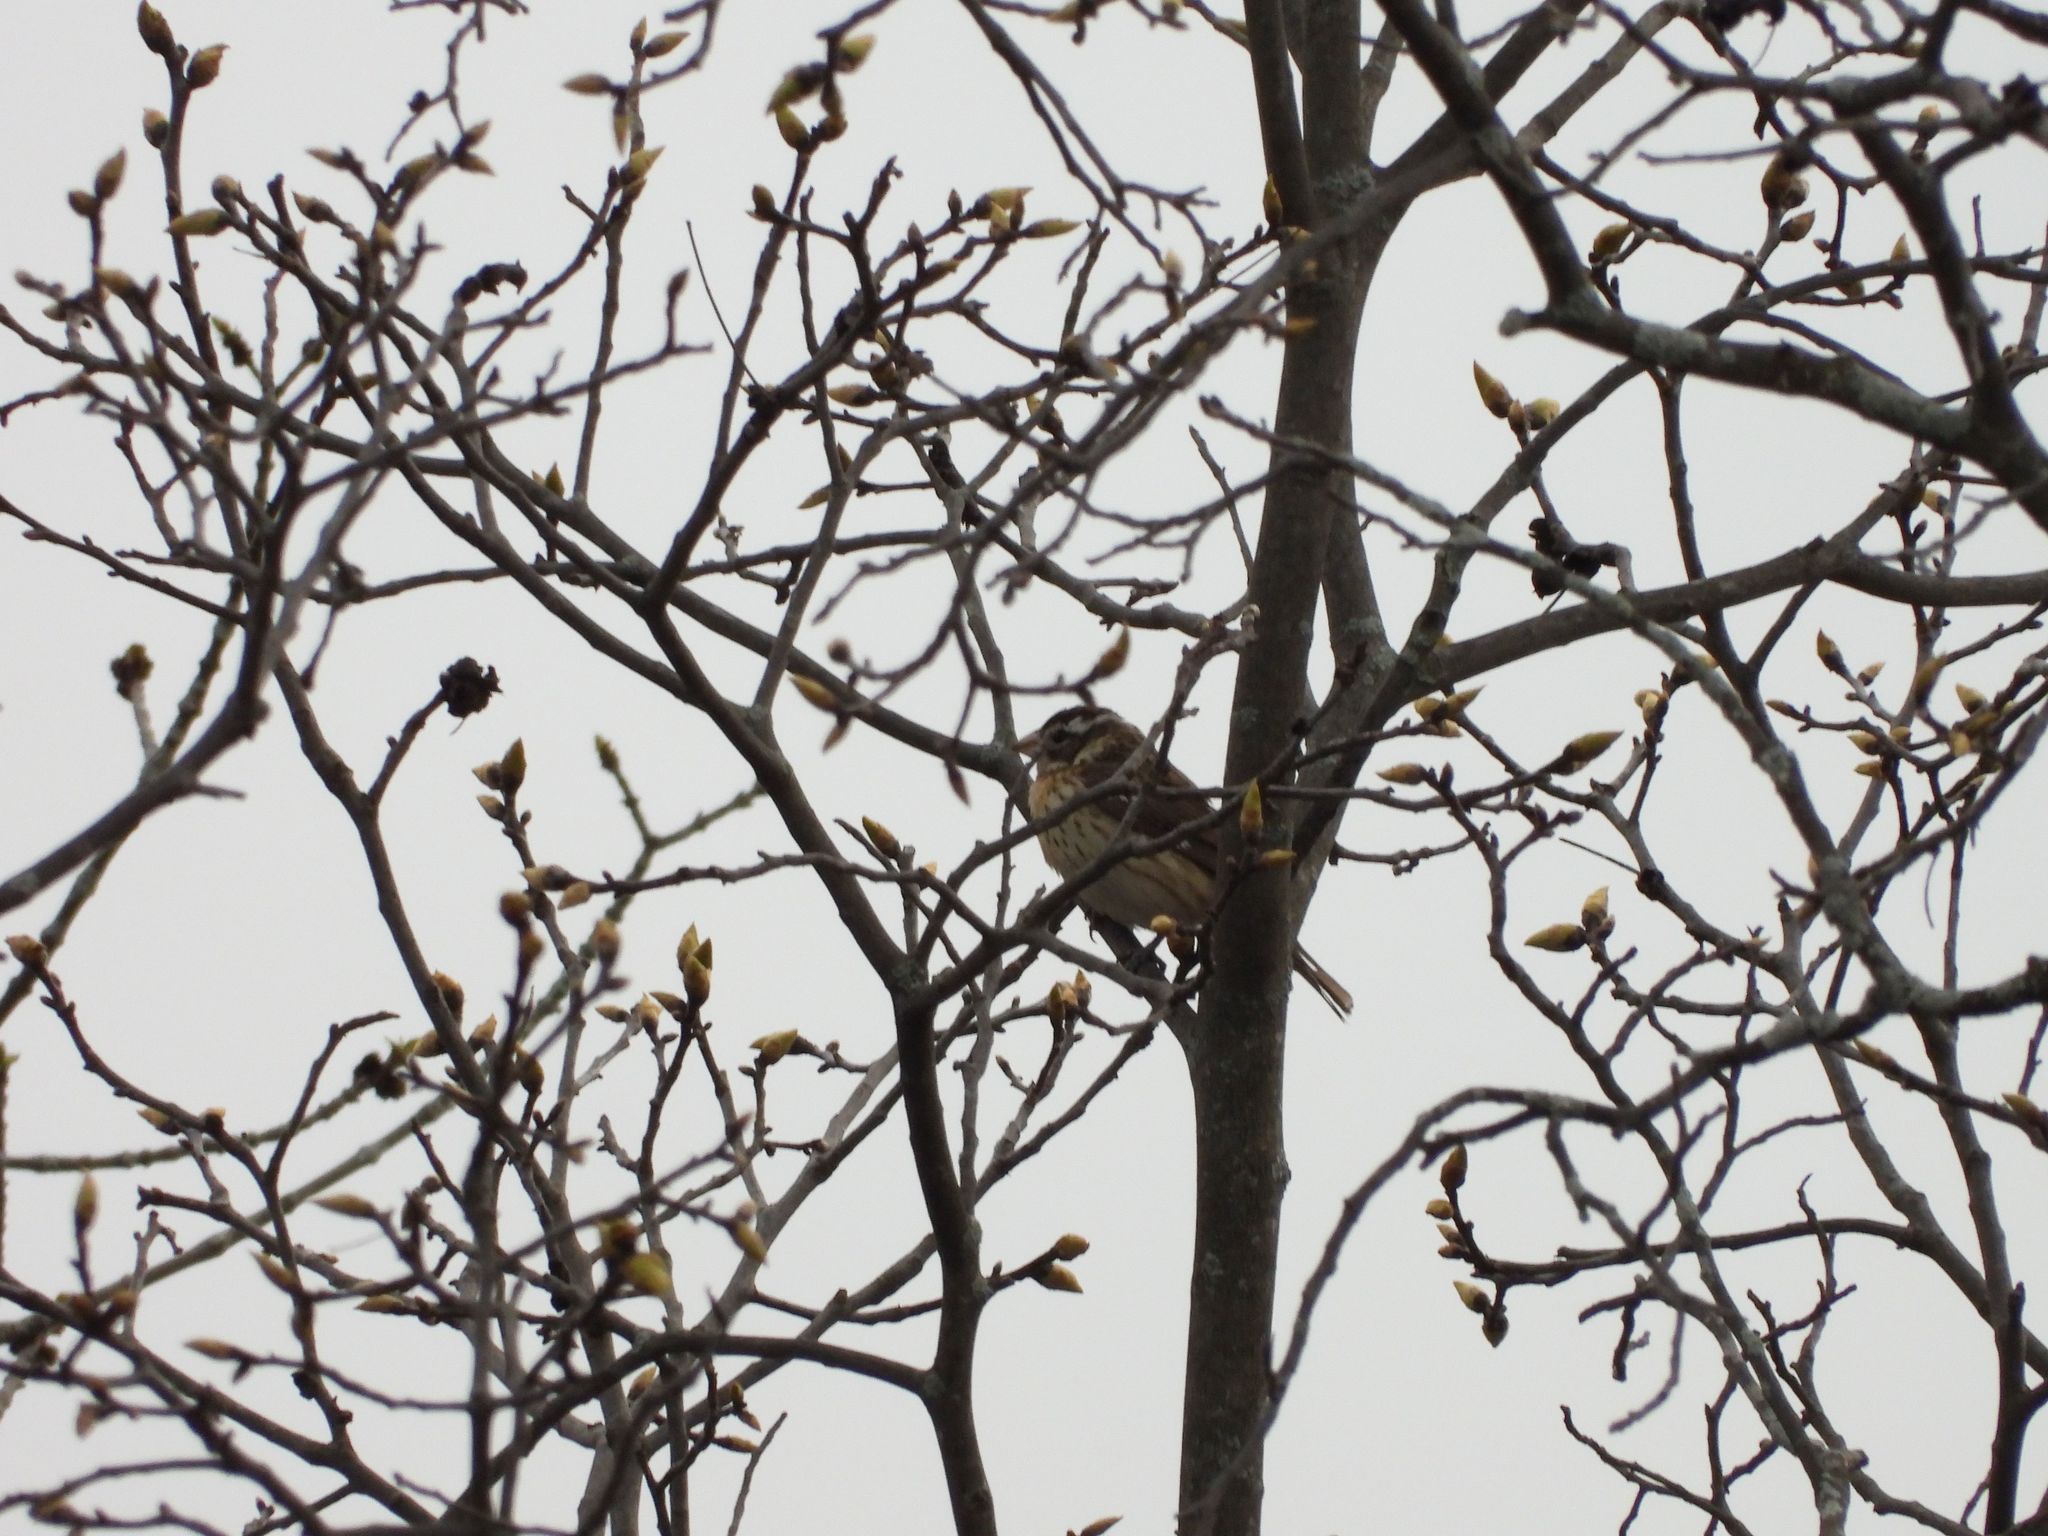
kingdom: Animalia
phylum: Chordata
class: Aves
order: Passeriformes
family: Cardinalidae
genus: Pheucticus
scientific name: Pheucticus ludovicianus
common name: Rose-breasted grosbeak
